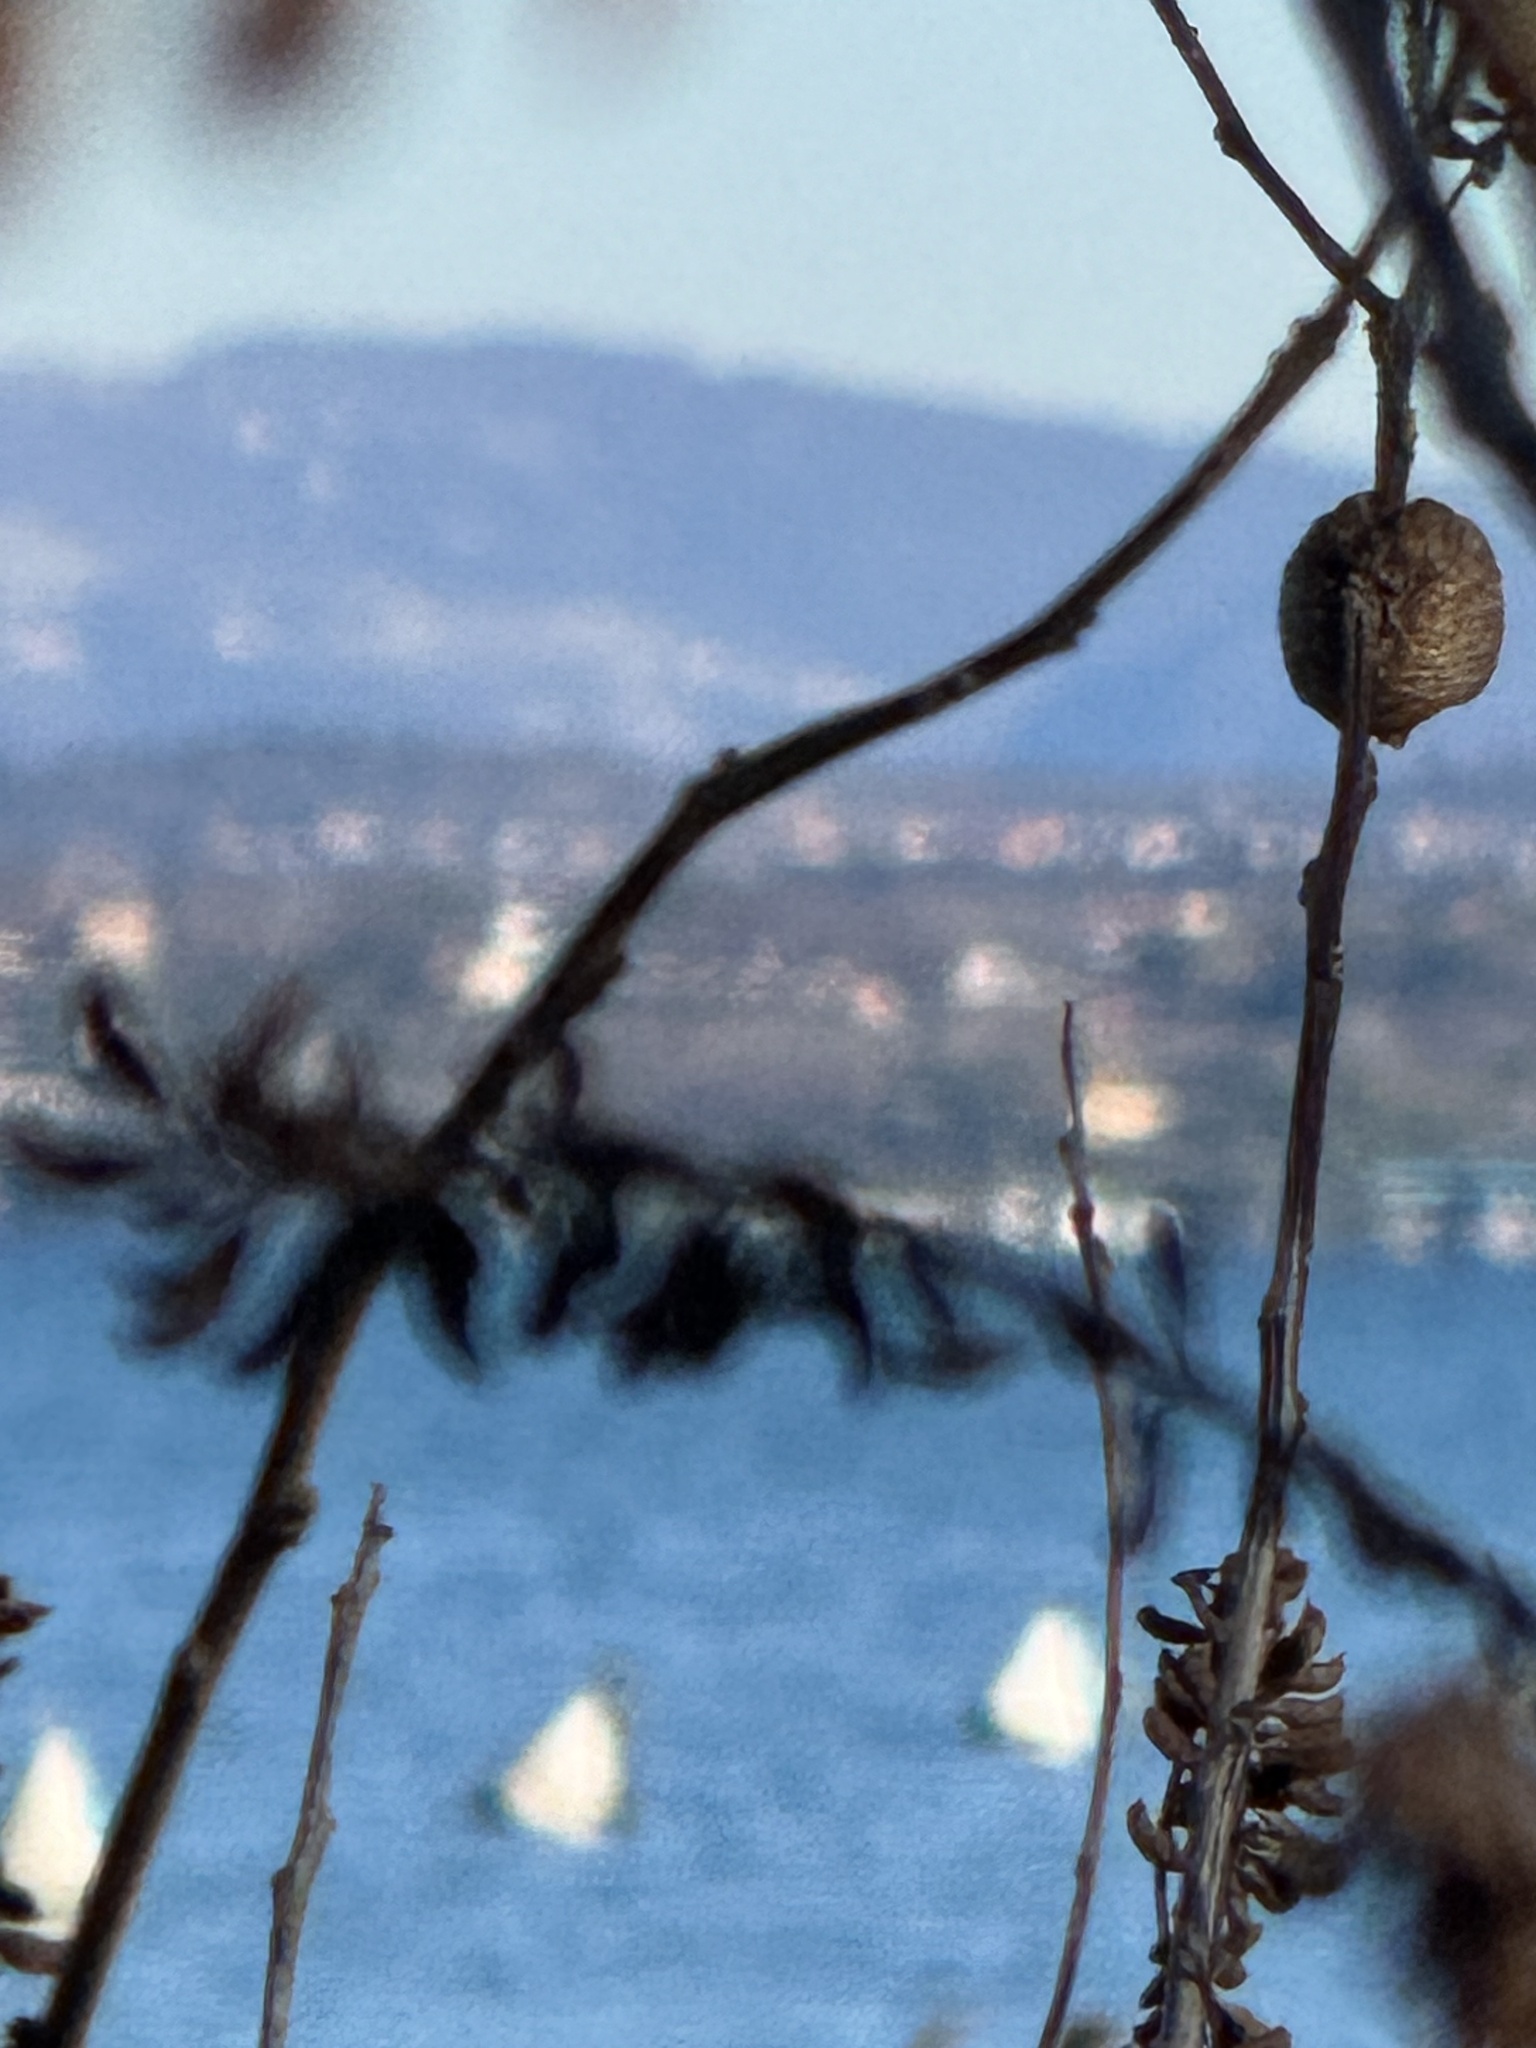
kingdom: Animalia
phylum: Arthropoda
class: Insecta
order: Mantodea
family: Mantidae
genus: Hierodula
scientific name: Hierodula transcaucasica
